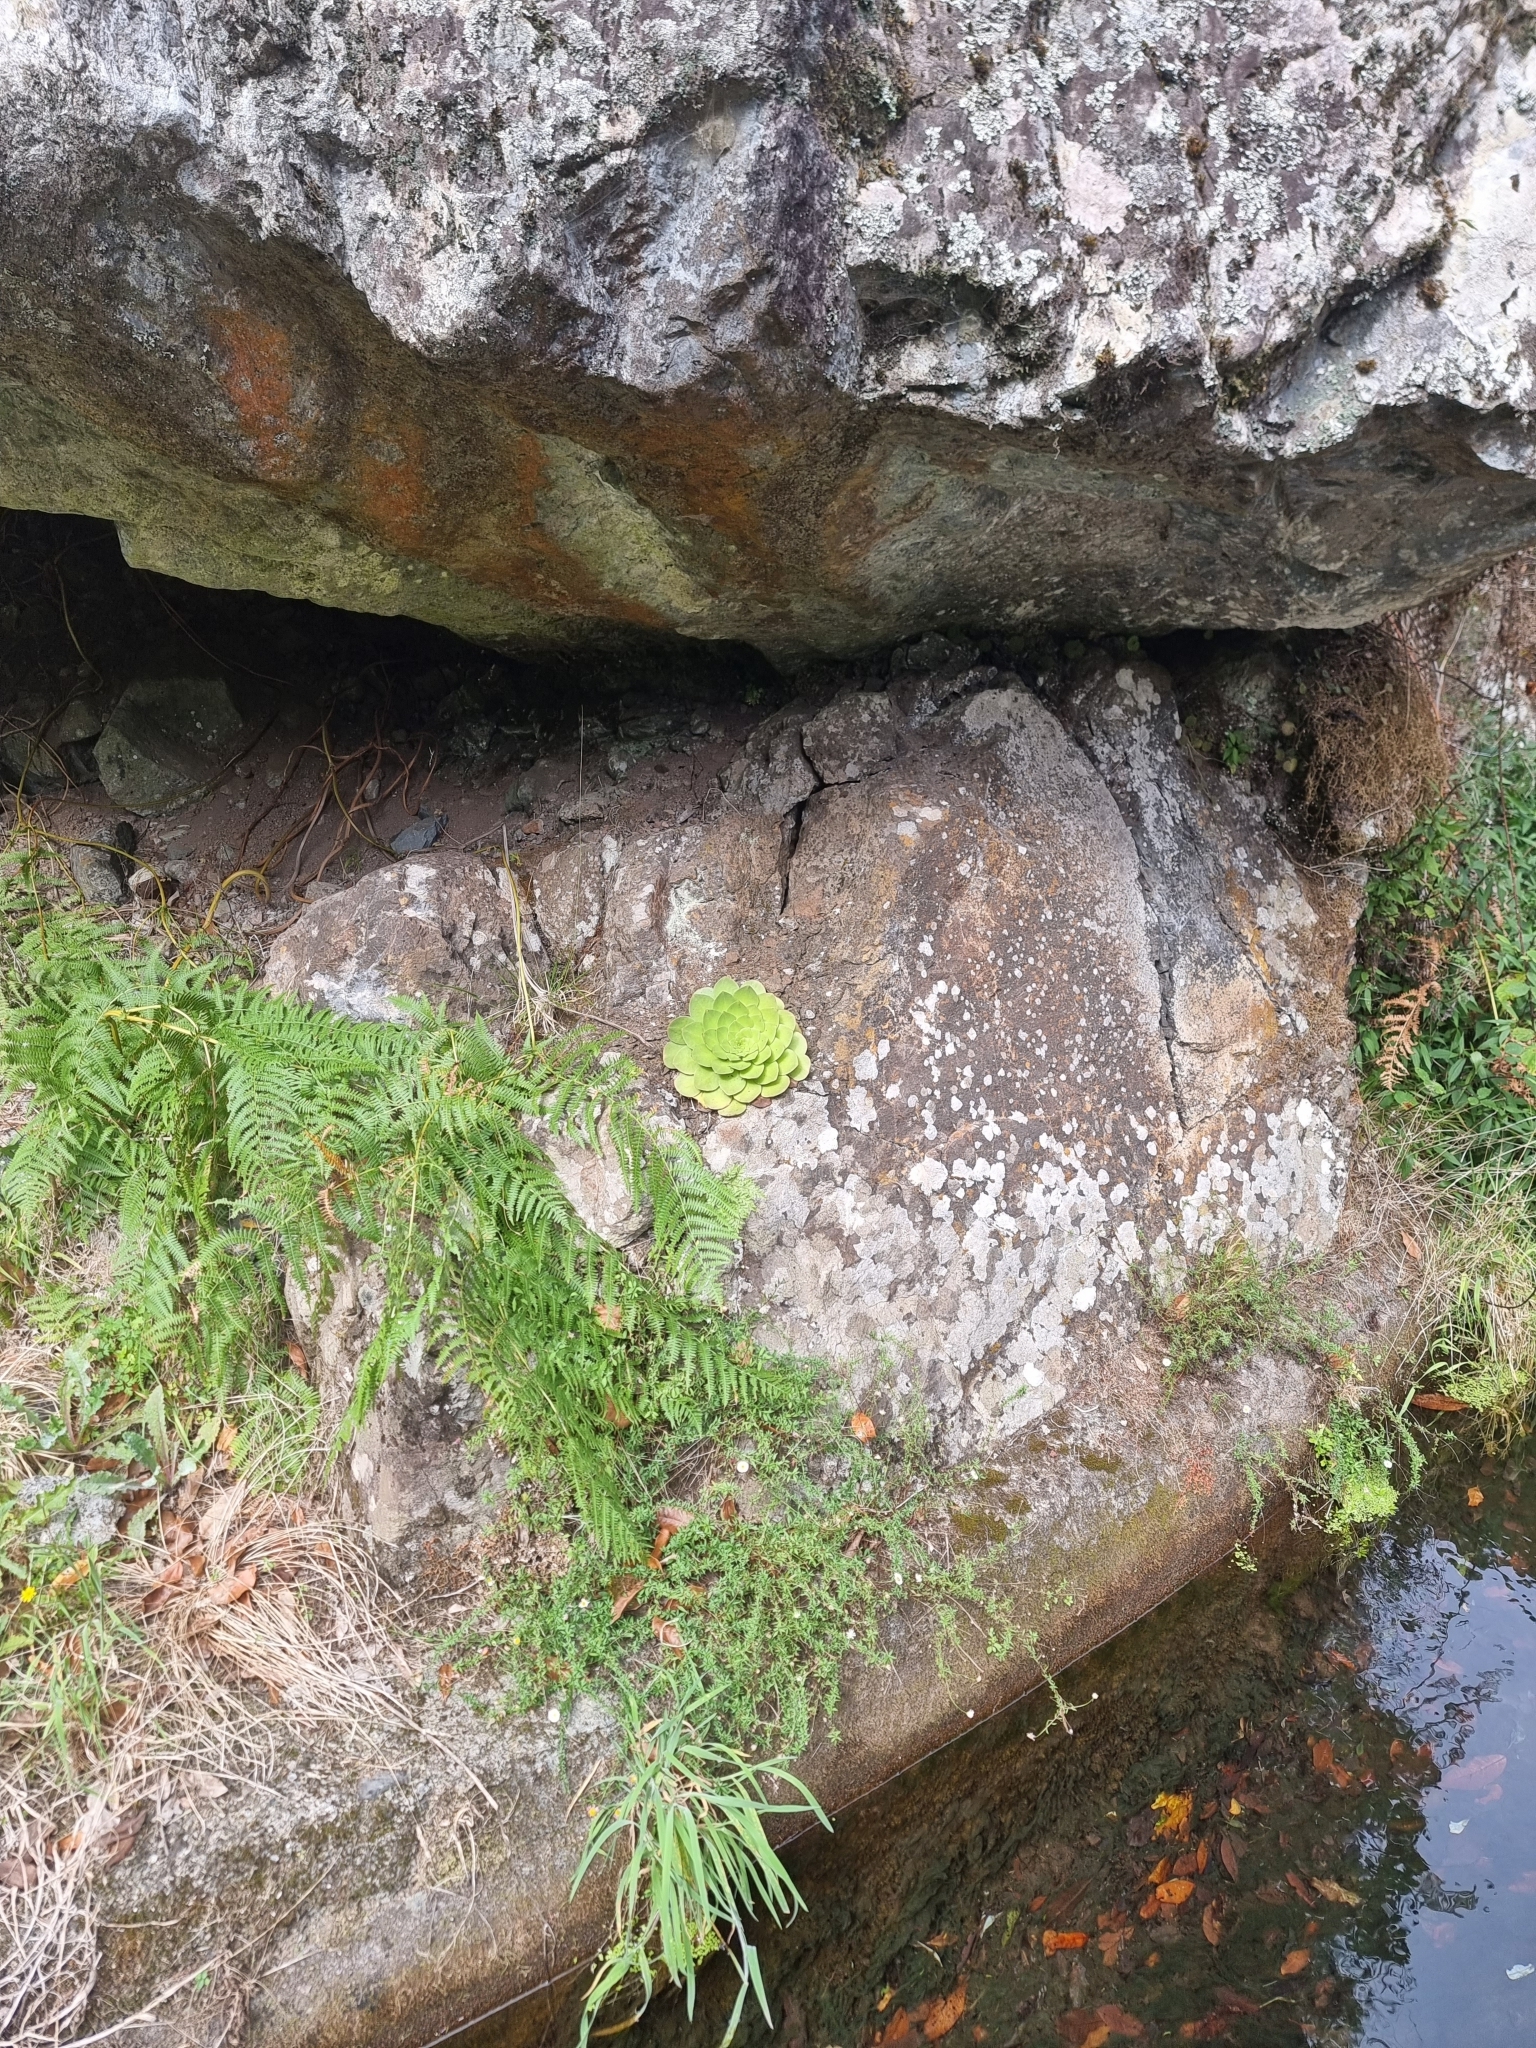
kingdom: Plantae
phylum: Tracheophyta
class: Magnoliopsida
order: Saxifragales
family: Crassulaceae
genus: Aeonium
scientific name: Aeonium glandulosum
